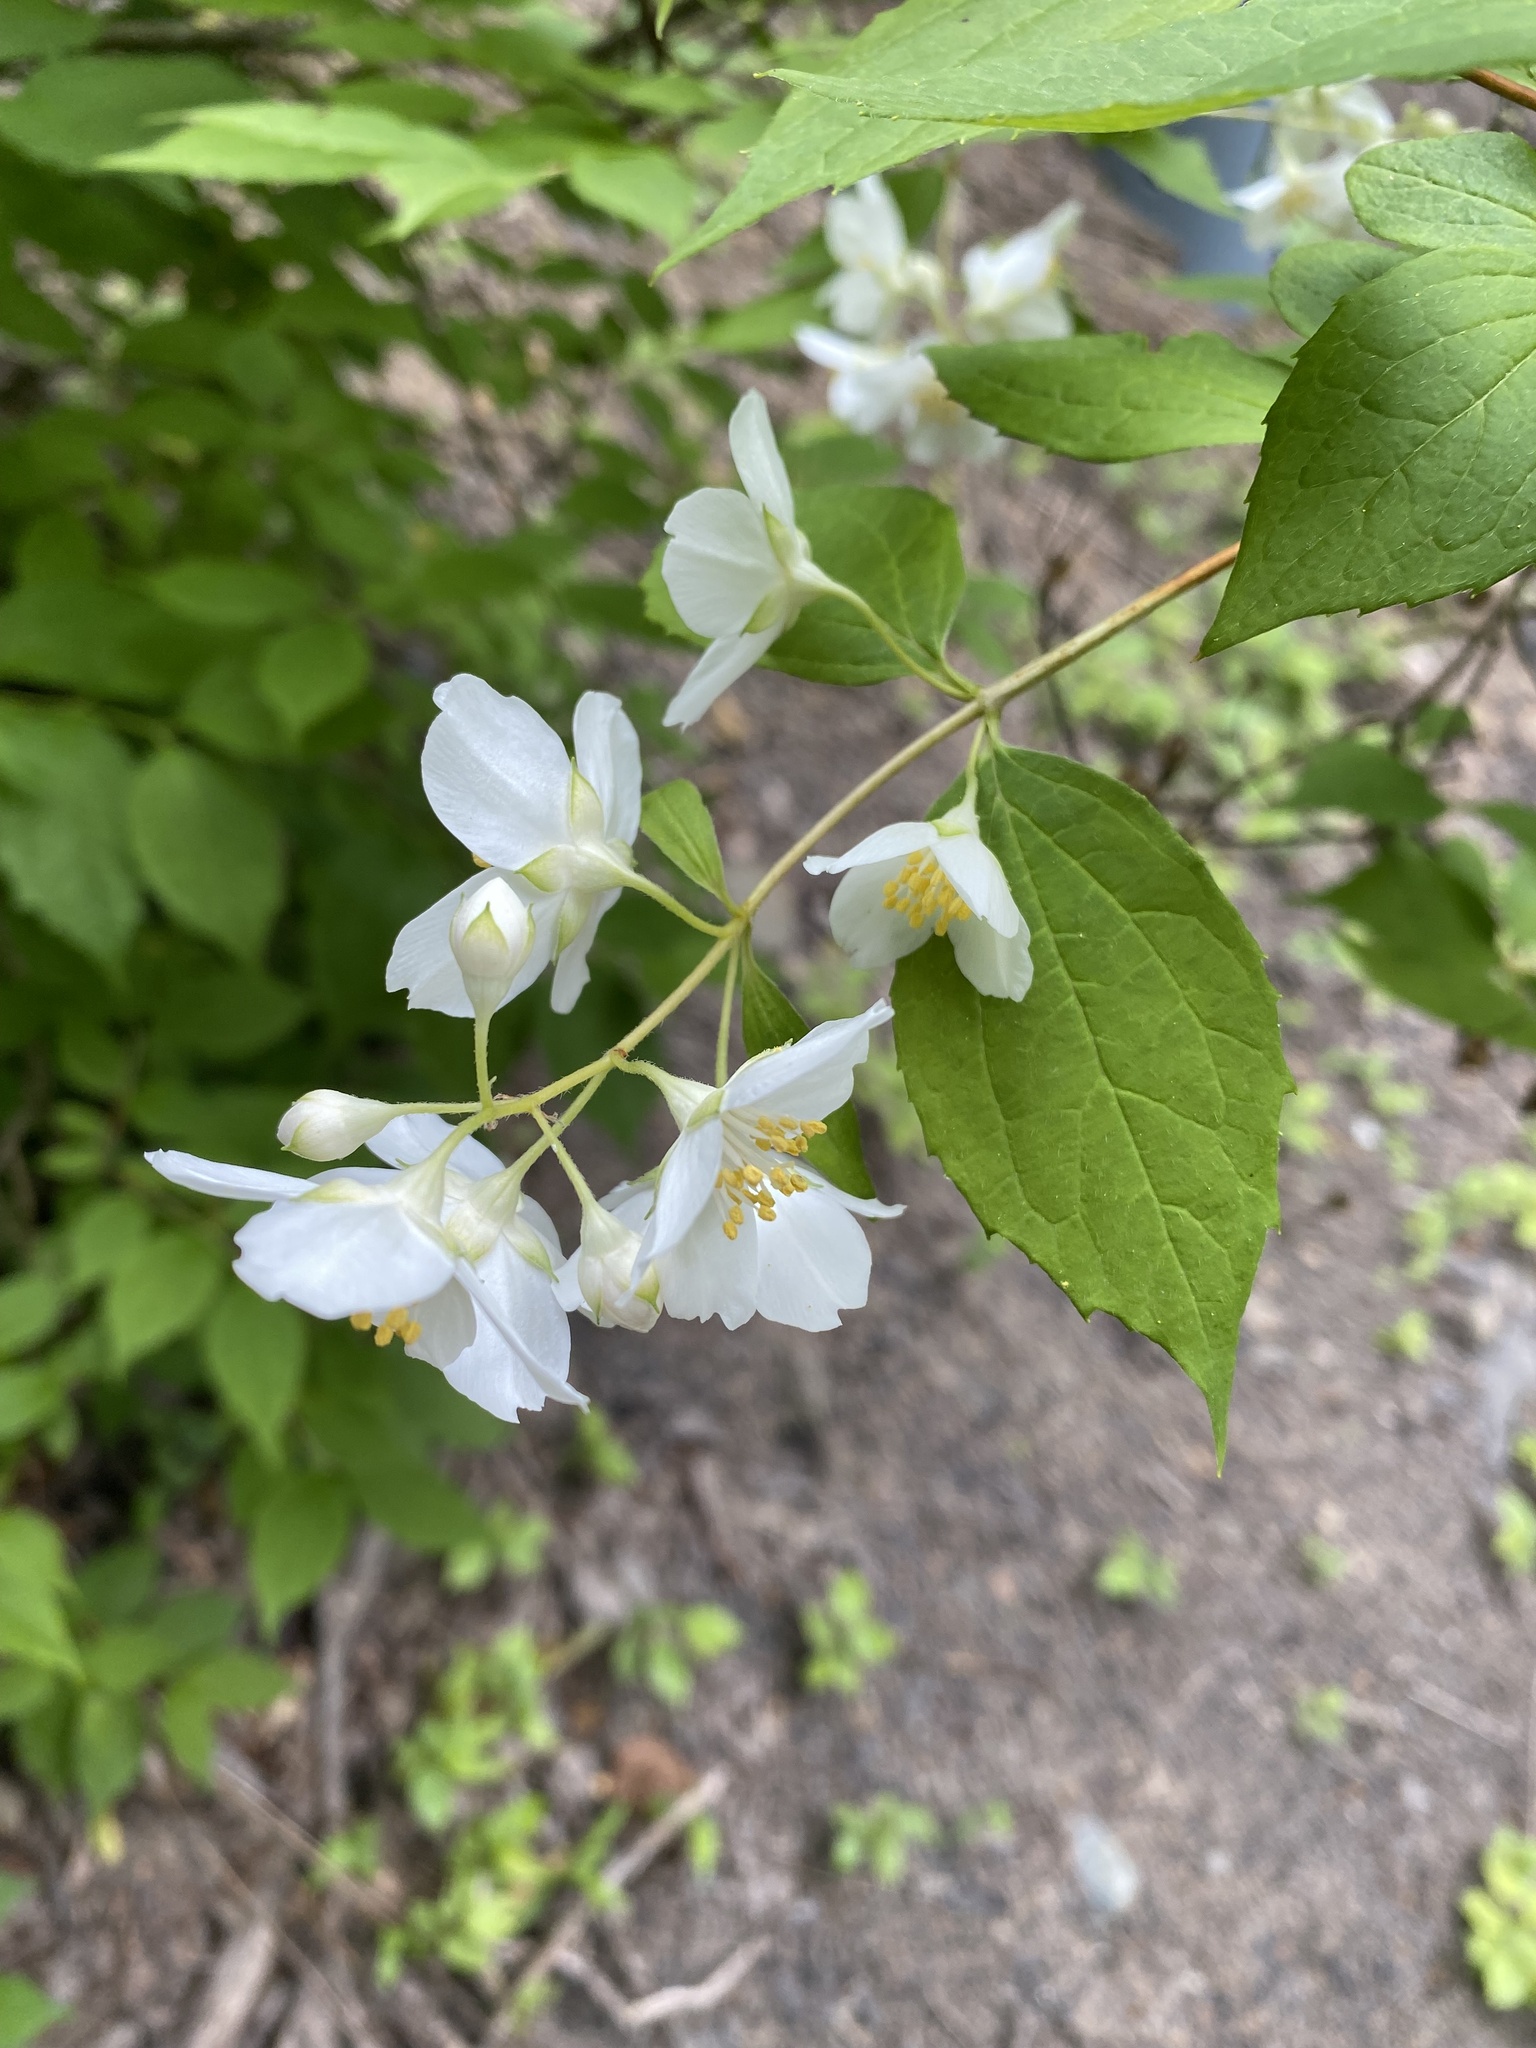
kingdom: Plantae
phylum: Tracheophyta
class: Magnoliopsida
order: Cornales
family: Hydrangeaceae
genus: Philadelphus
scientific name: Philadelphus coronarius
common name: Mock orange
